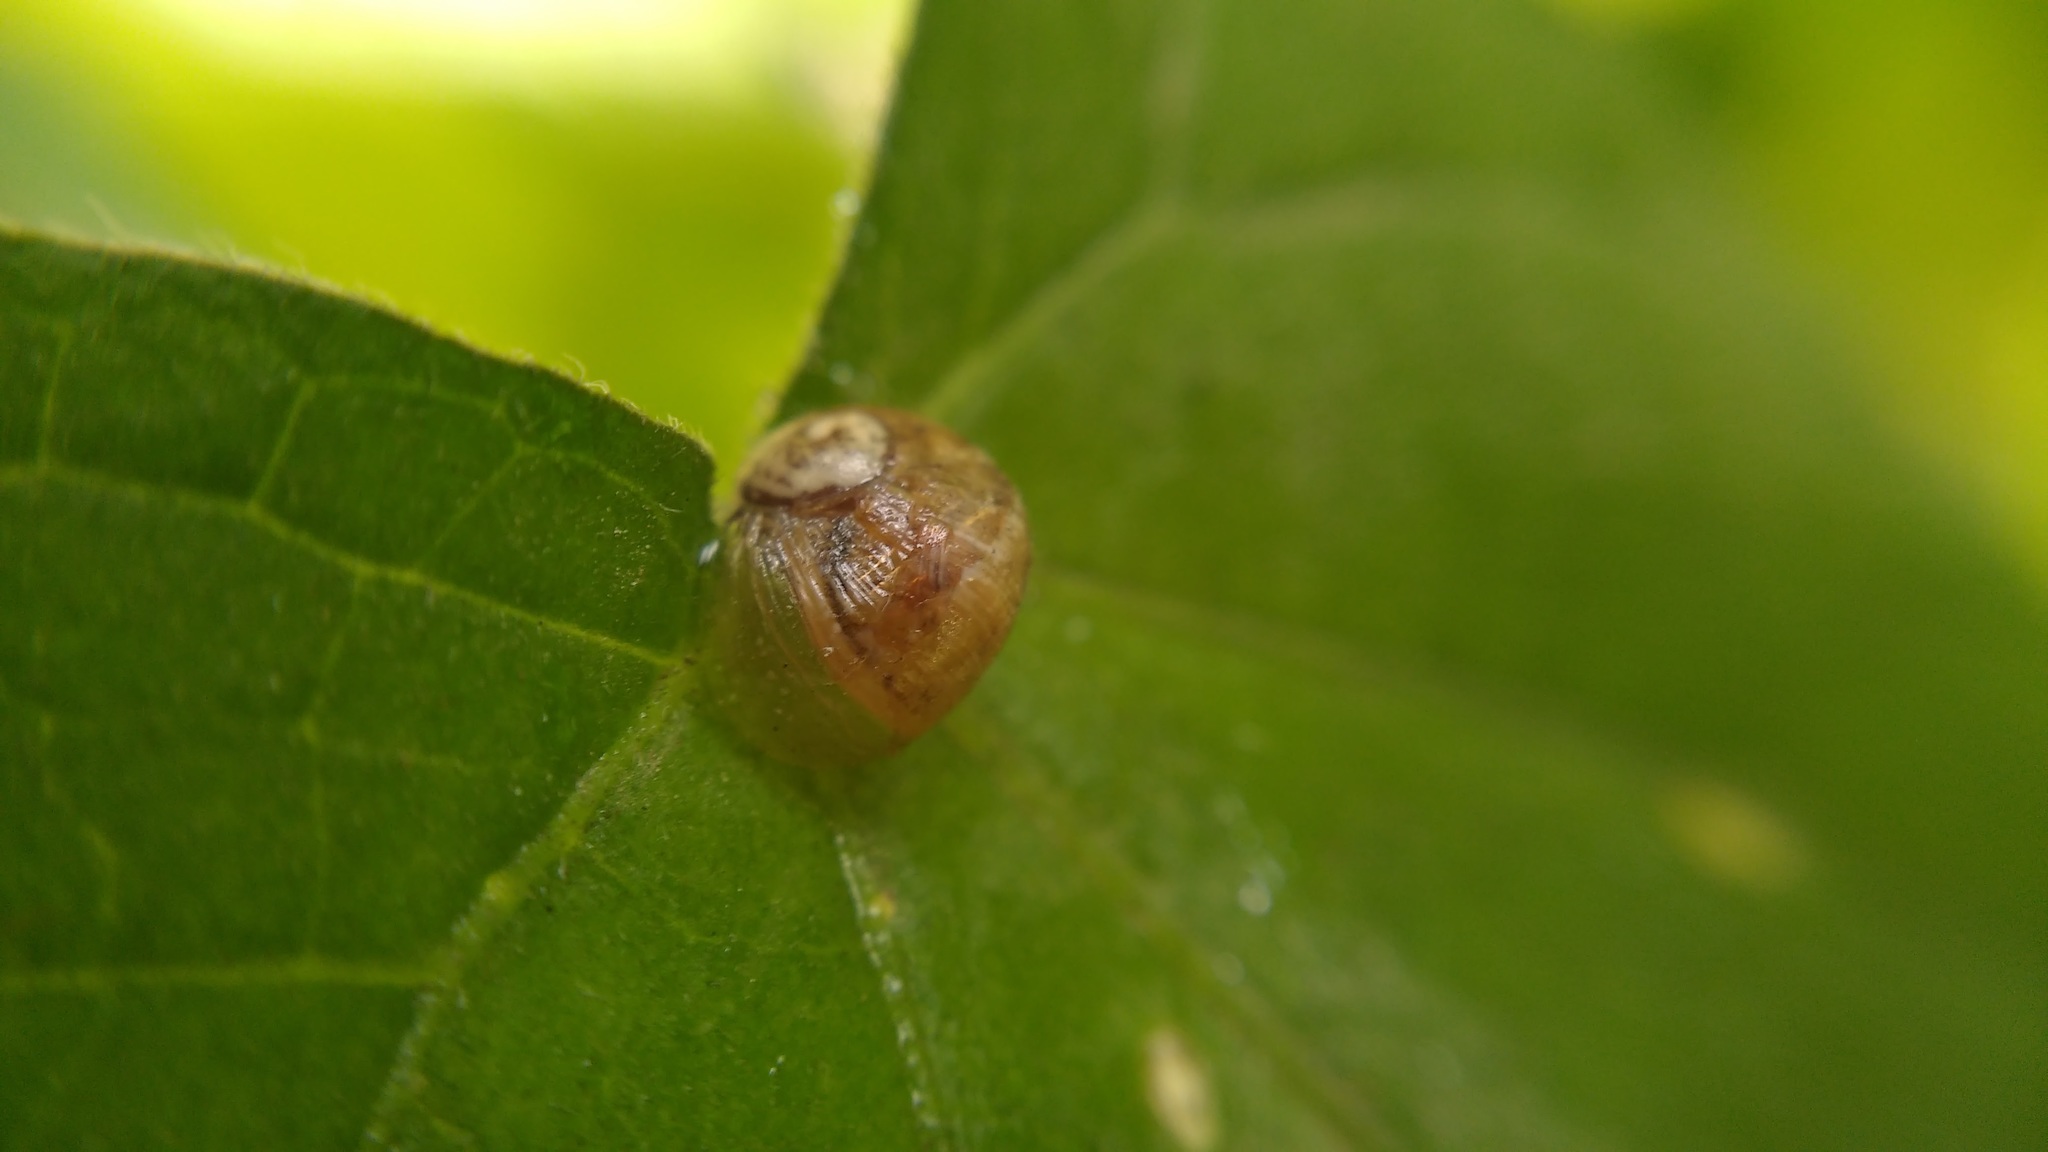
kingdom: Animalia
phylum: Mollusca
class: Gastropoda
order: Stylommatophora
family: Helicidae
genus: Cornu
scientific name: Cornu aspersum
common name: Brown garden snail
